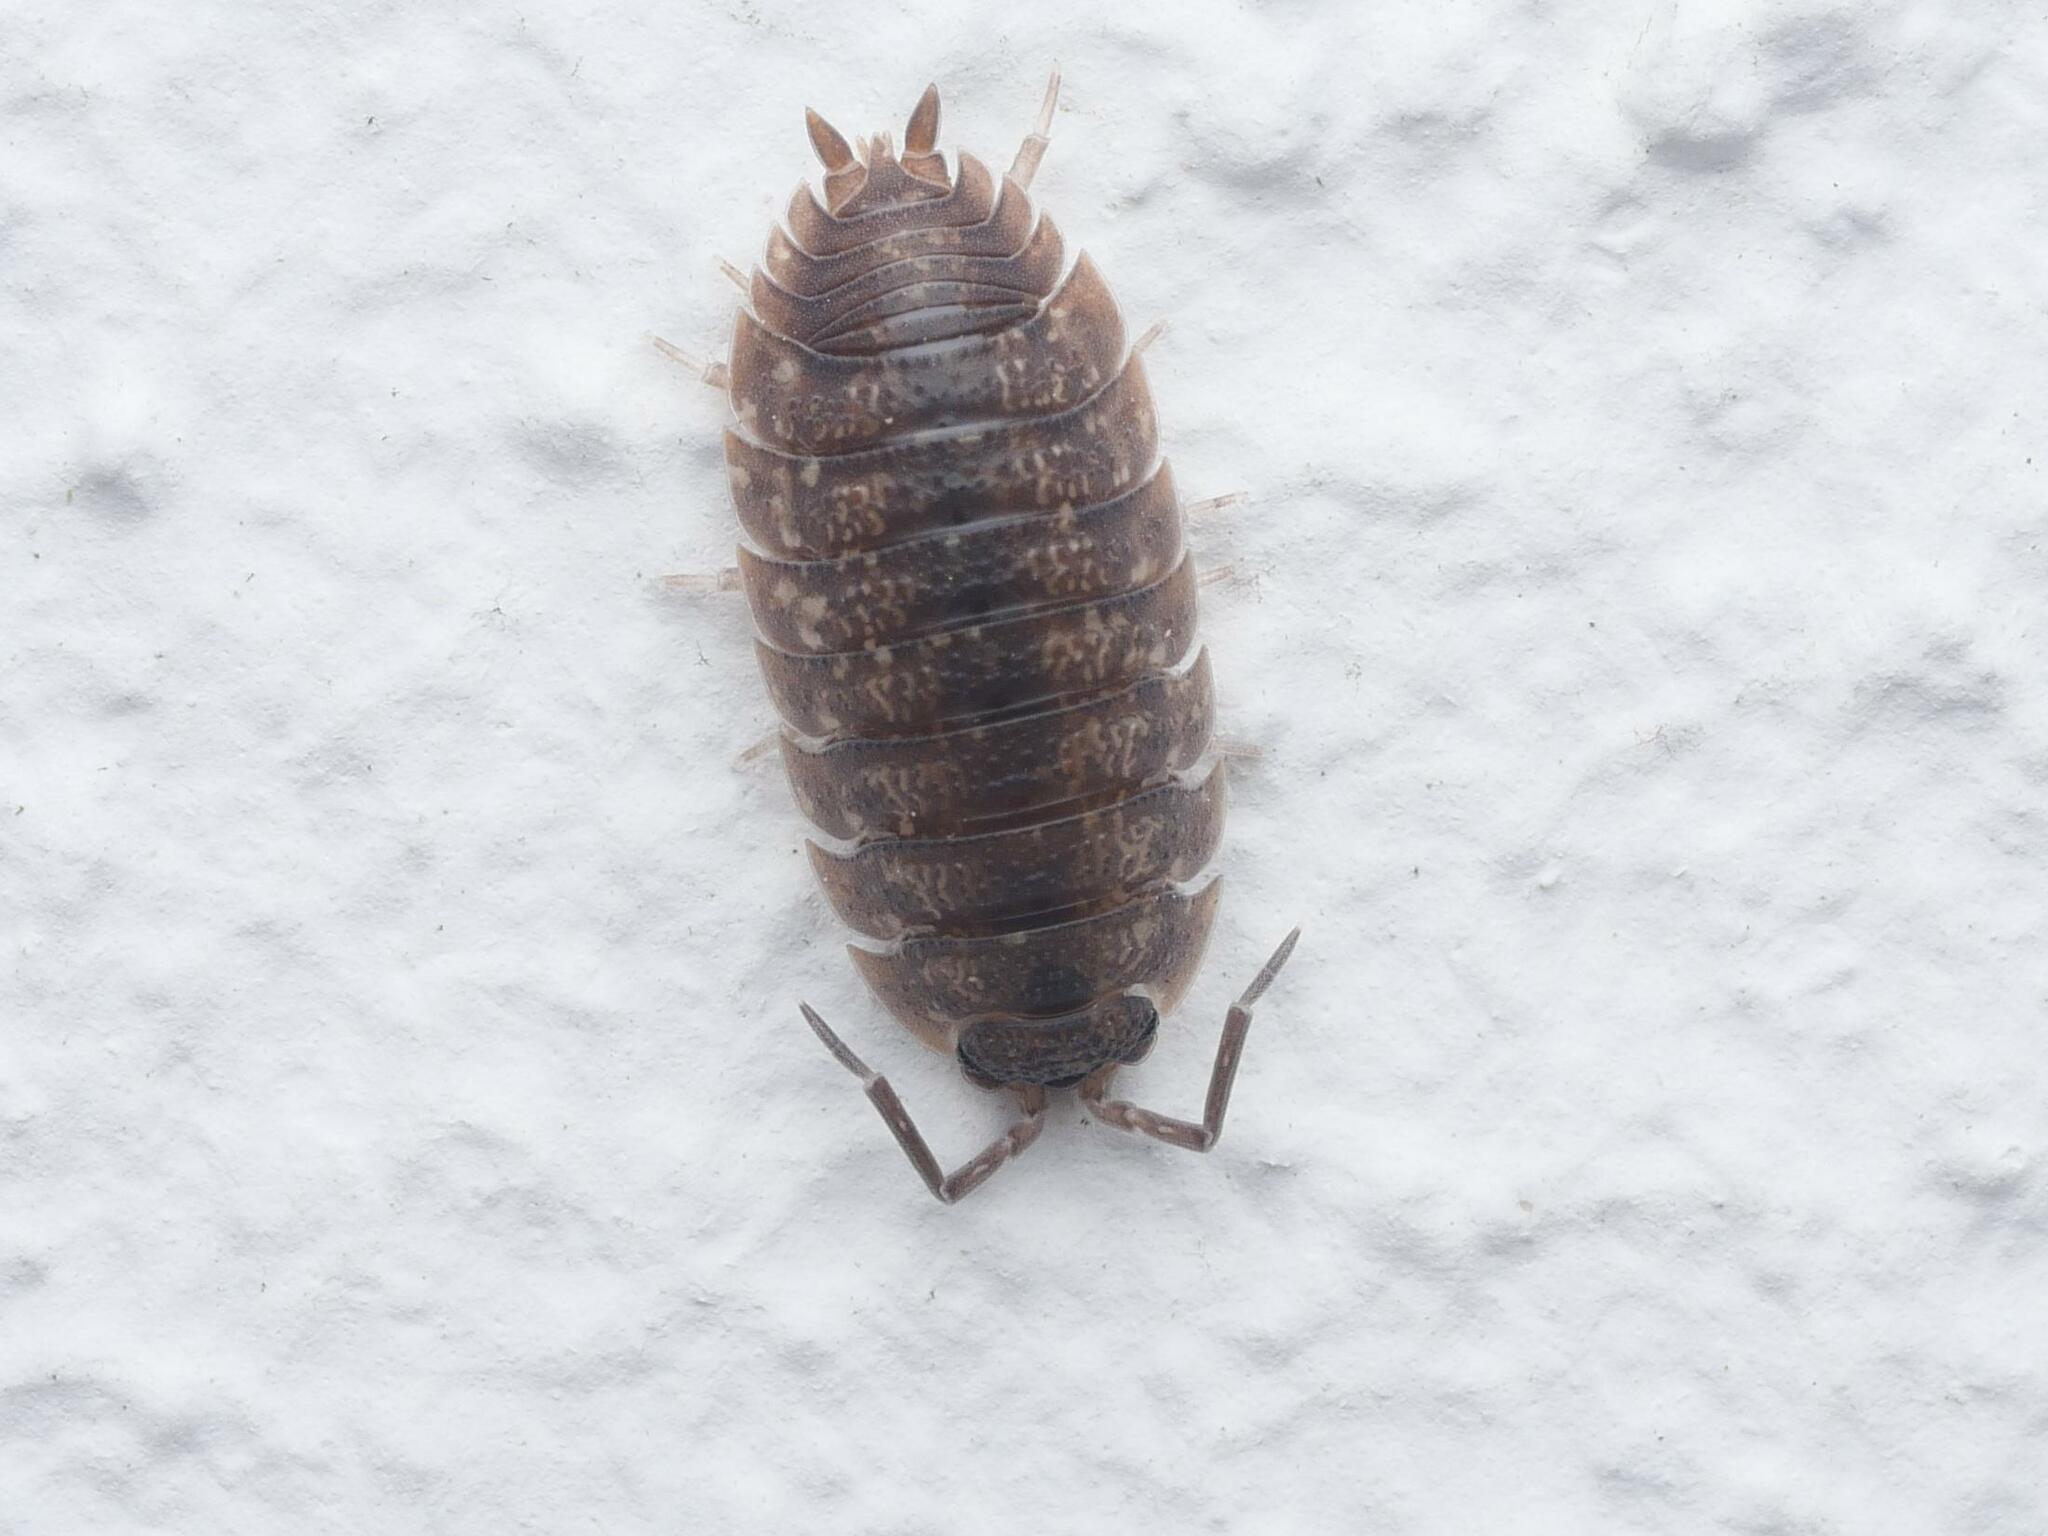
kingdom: Animalia
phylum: Arthropoda
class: Malacostraca
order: Isopoda
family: Porcellionidae
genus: Porcellio
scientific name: Porcellio scaber
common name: Common rough woodlouse
